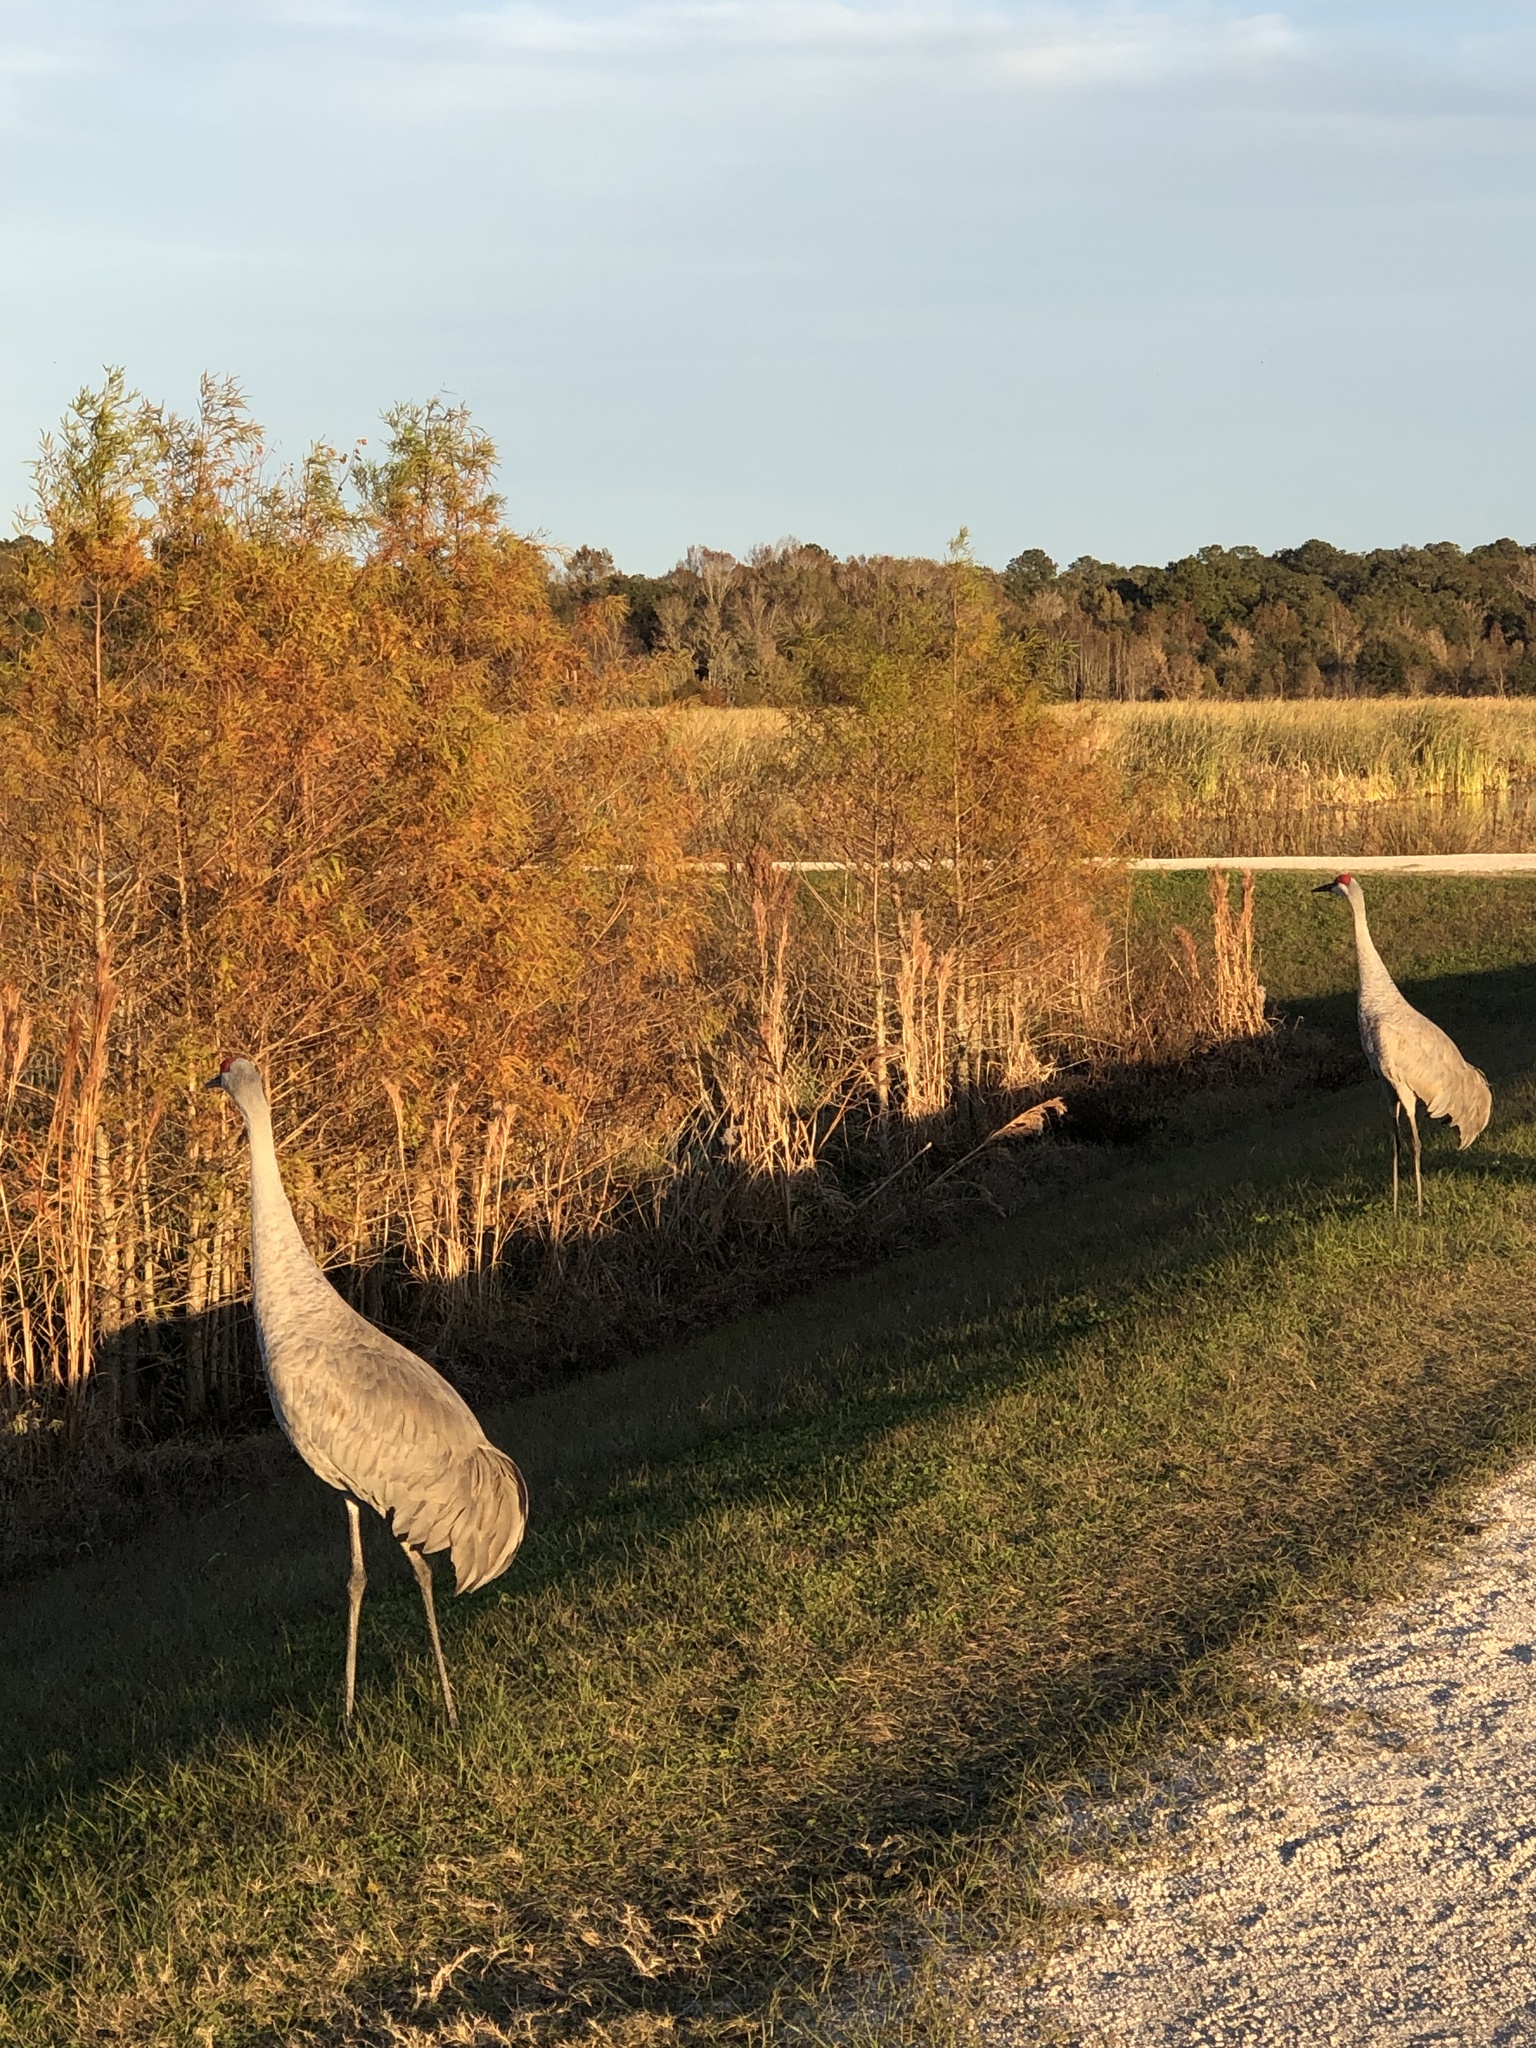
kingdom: Animalia
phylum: Chordata
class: Aves
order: Gruiformes
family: Gruidae
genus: Grus
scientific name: Grus canadensis
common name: Sandhill crane
